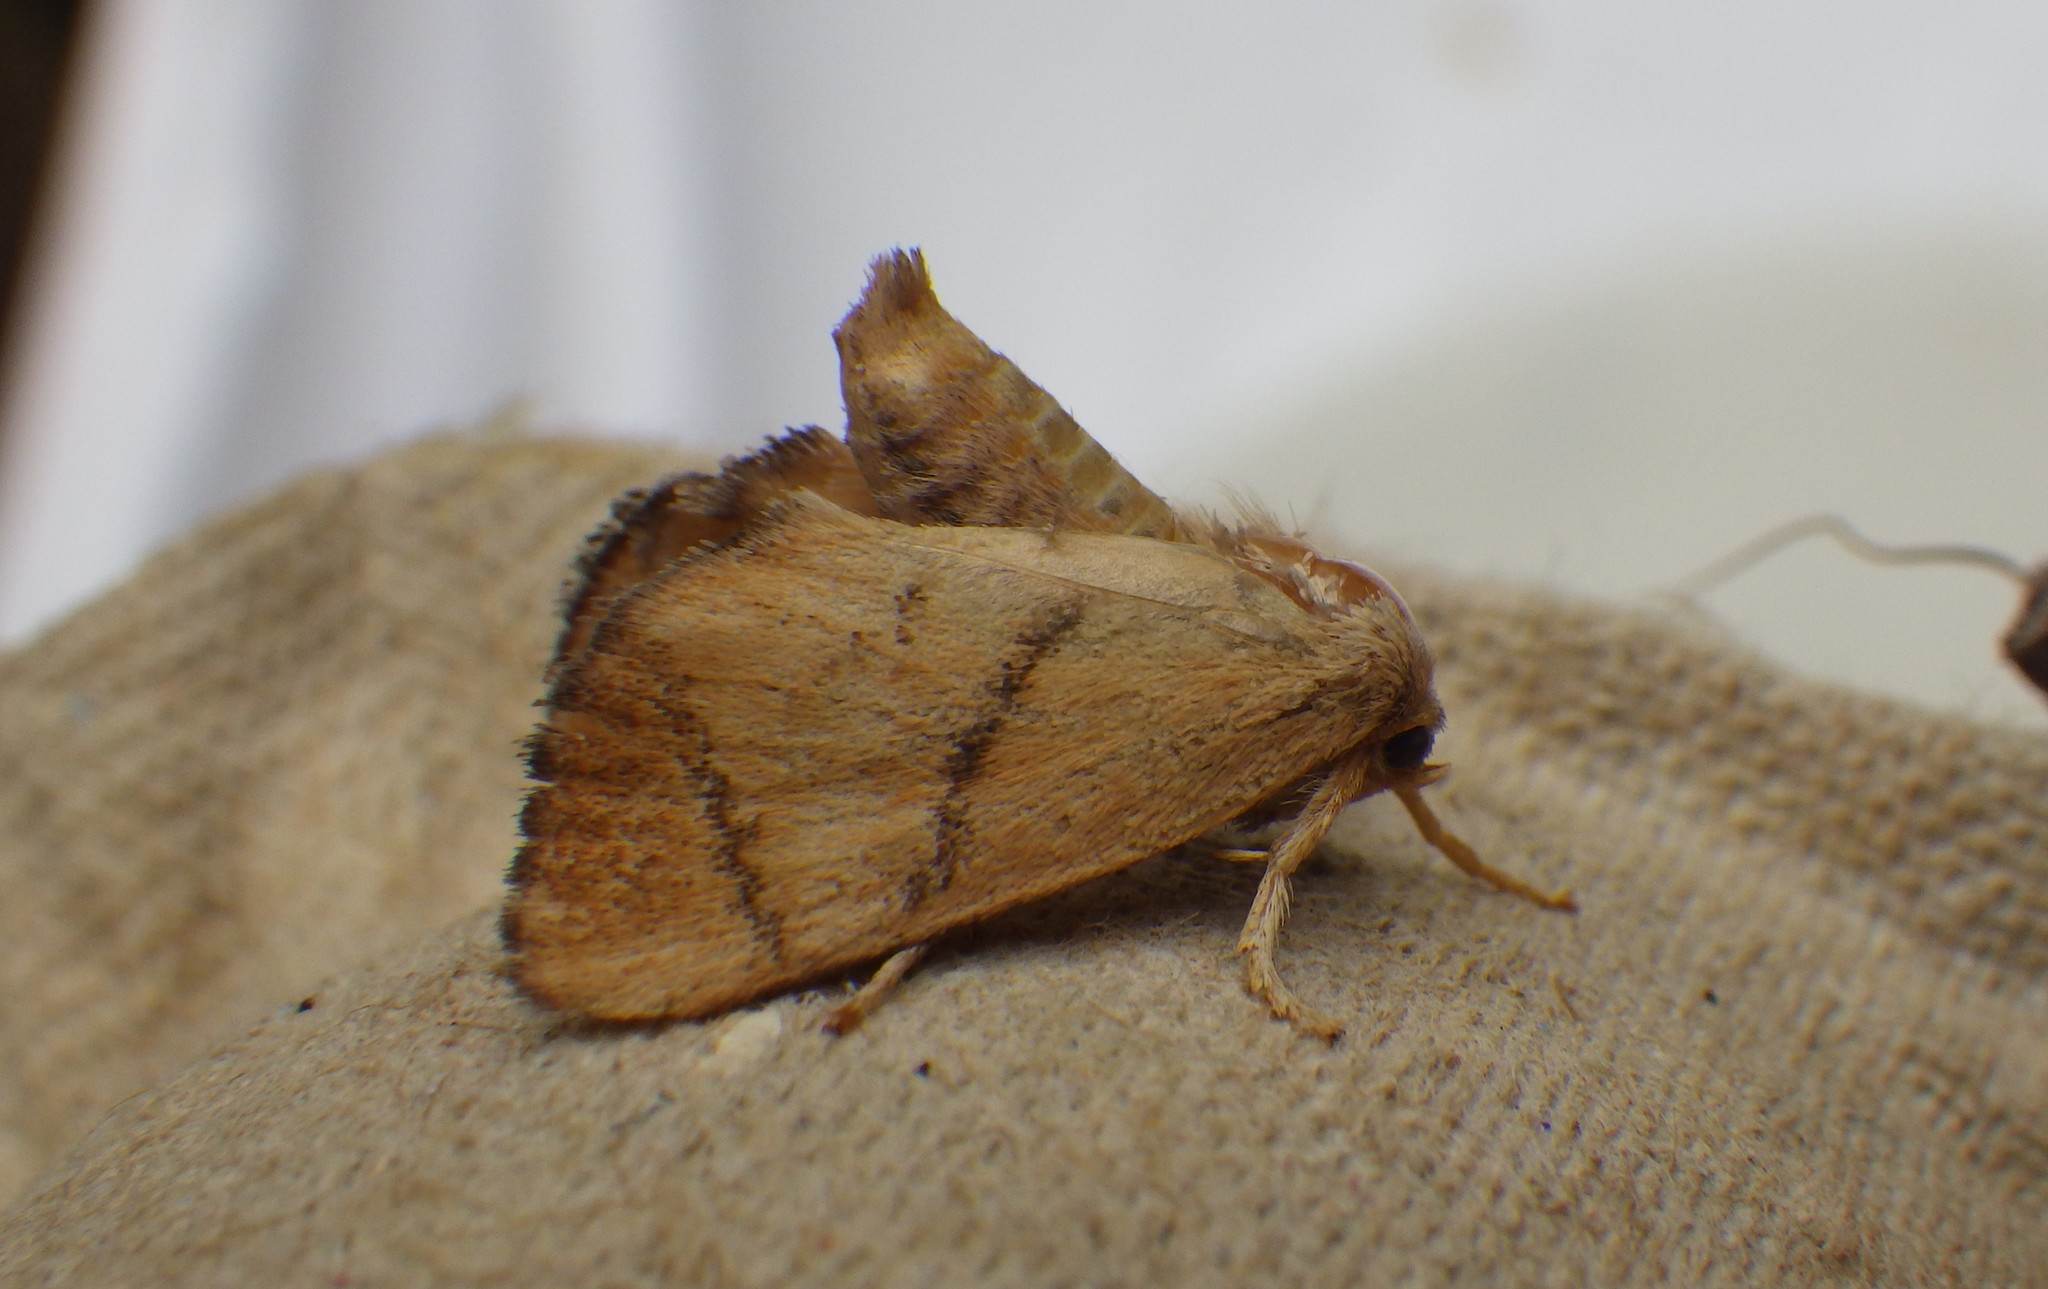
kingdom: Animalia
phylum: Arthropoda
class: Insecta
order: Lepidoptera
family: Limacodidae
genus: Apoda
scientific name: Apoda limacodes
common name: Festoon
